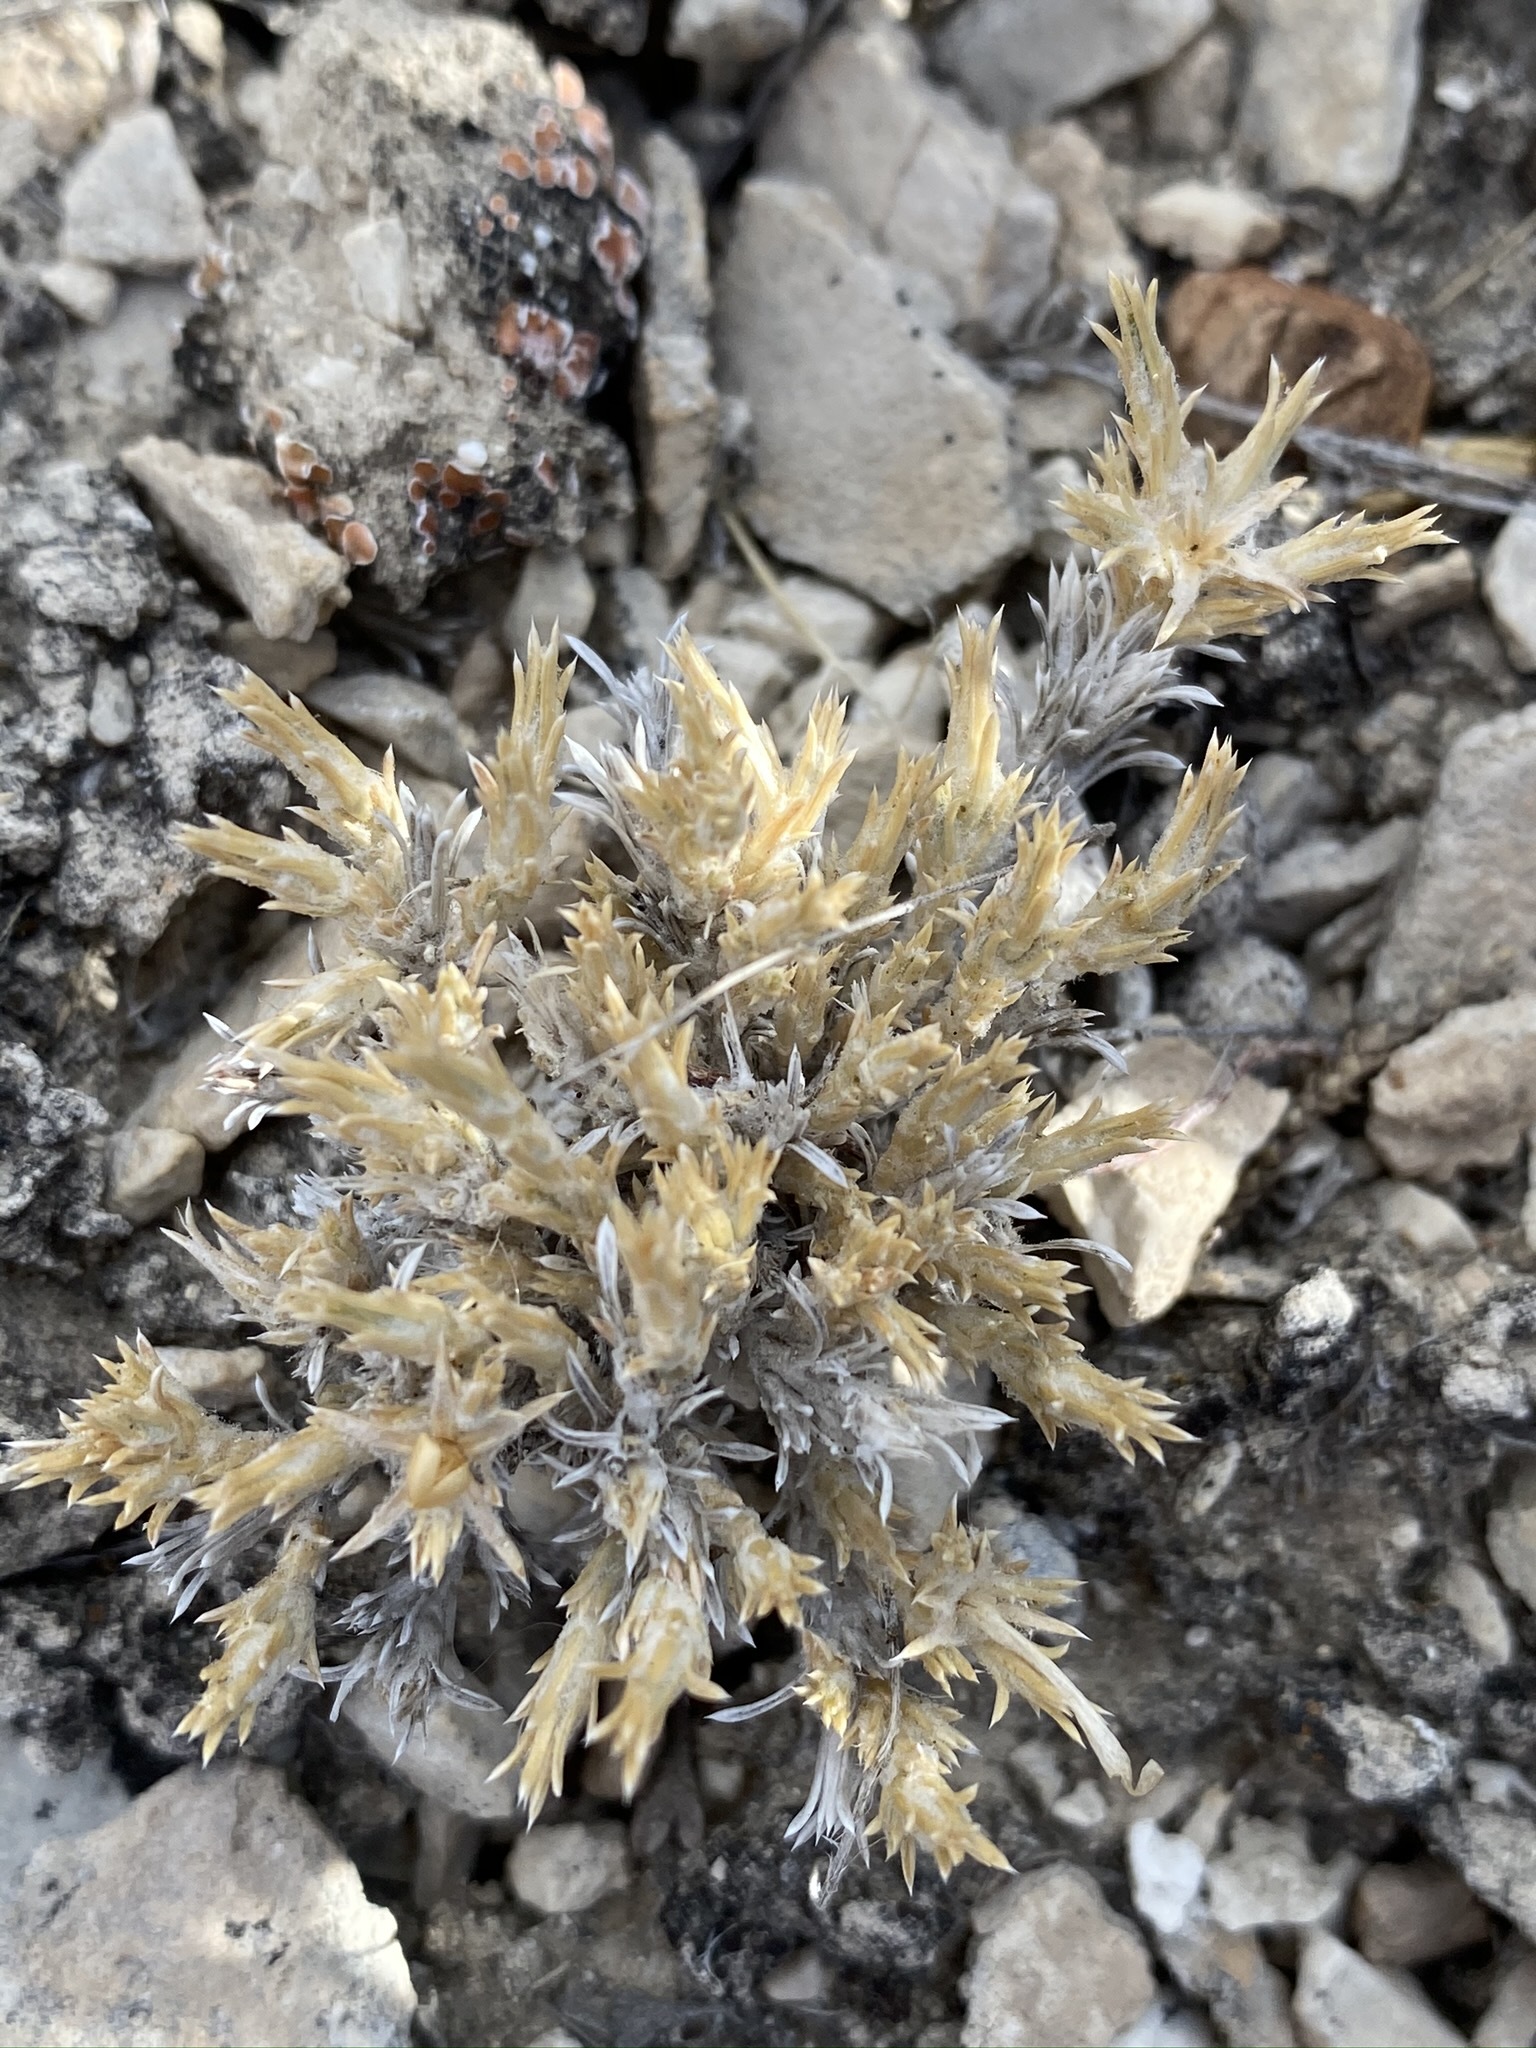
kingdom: Plantae
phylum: Tracheophyta
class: Magnoliopsida
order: Ericales
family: Polemoniaceae
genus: Phlox
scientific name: Phlox hoodii
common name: Moss phlox
